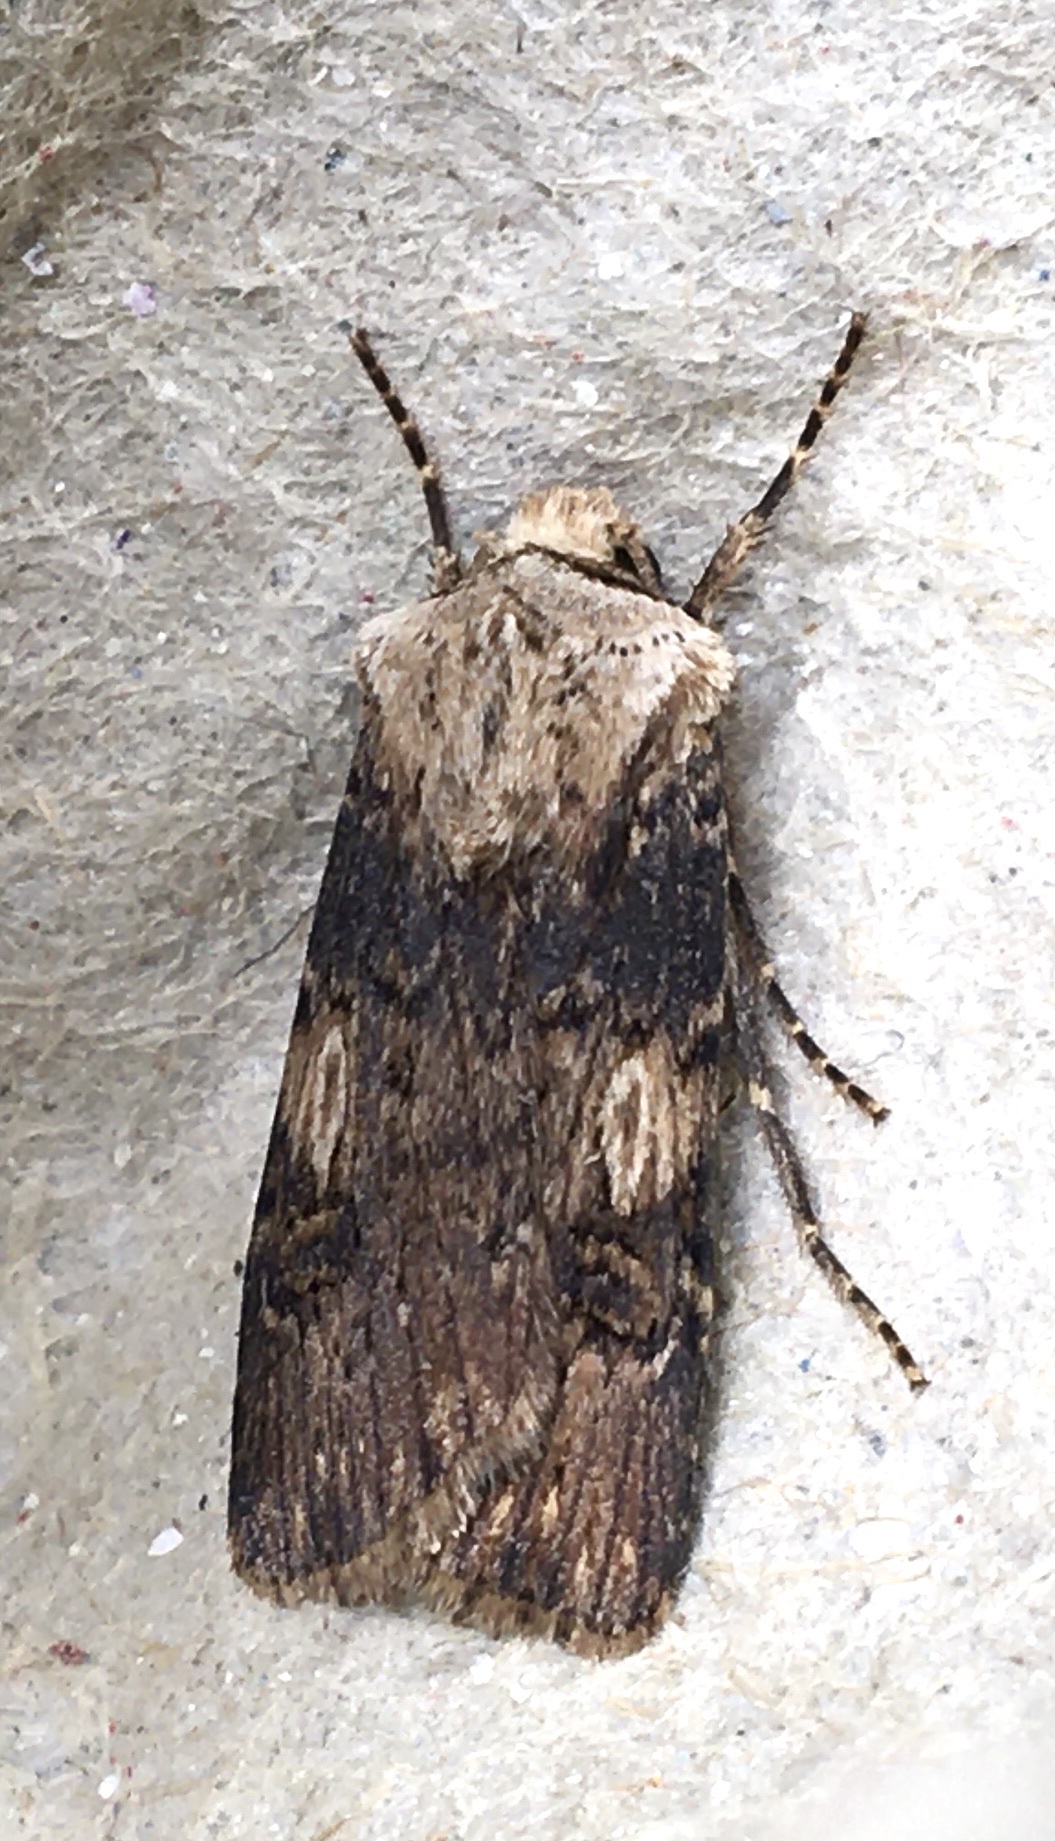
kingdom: Animalia
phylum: Arthropoda
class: Insecta
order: Lepidoptera
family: Noctuidae
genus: Agrotis
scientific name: Agrotis puta
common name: Shuttle-shaped dart
